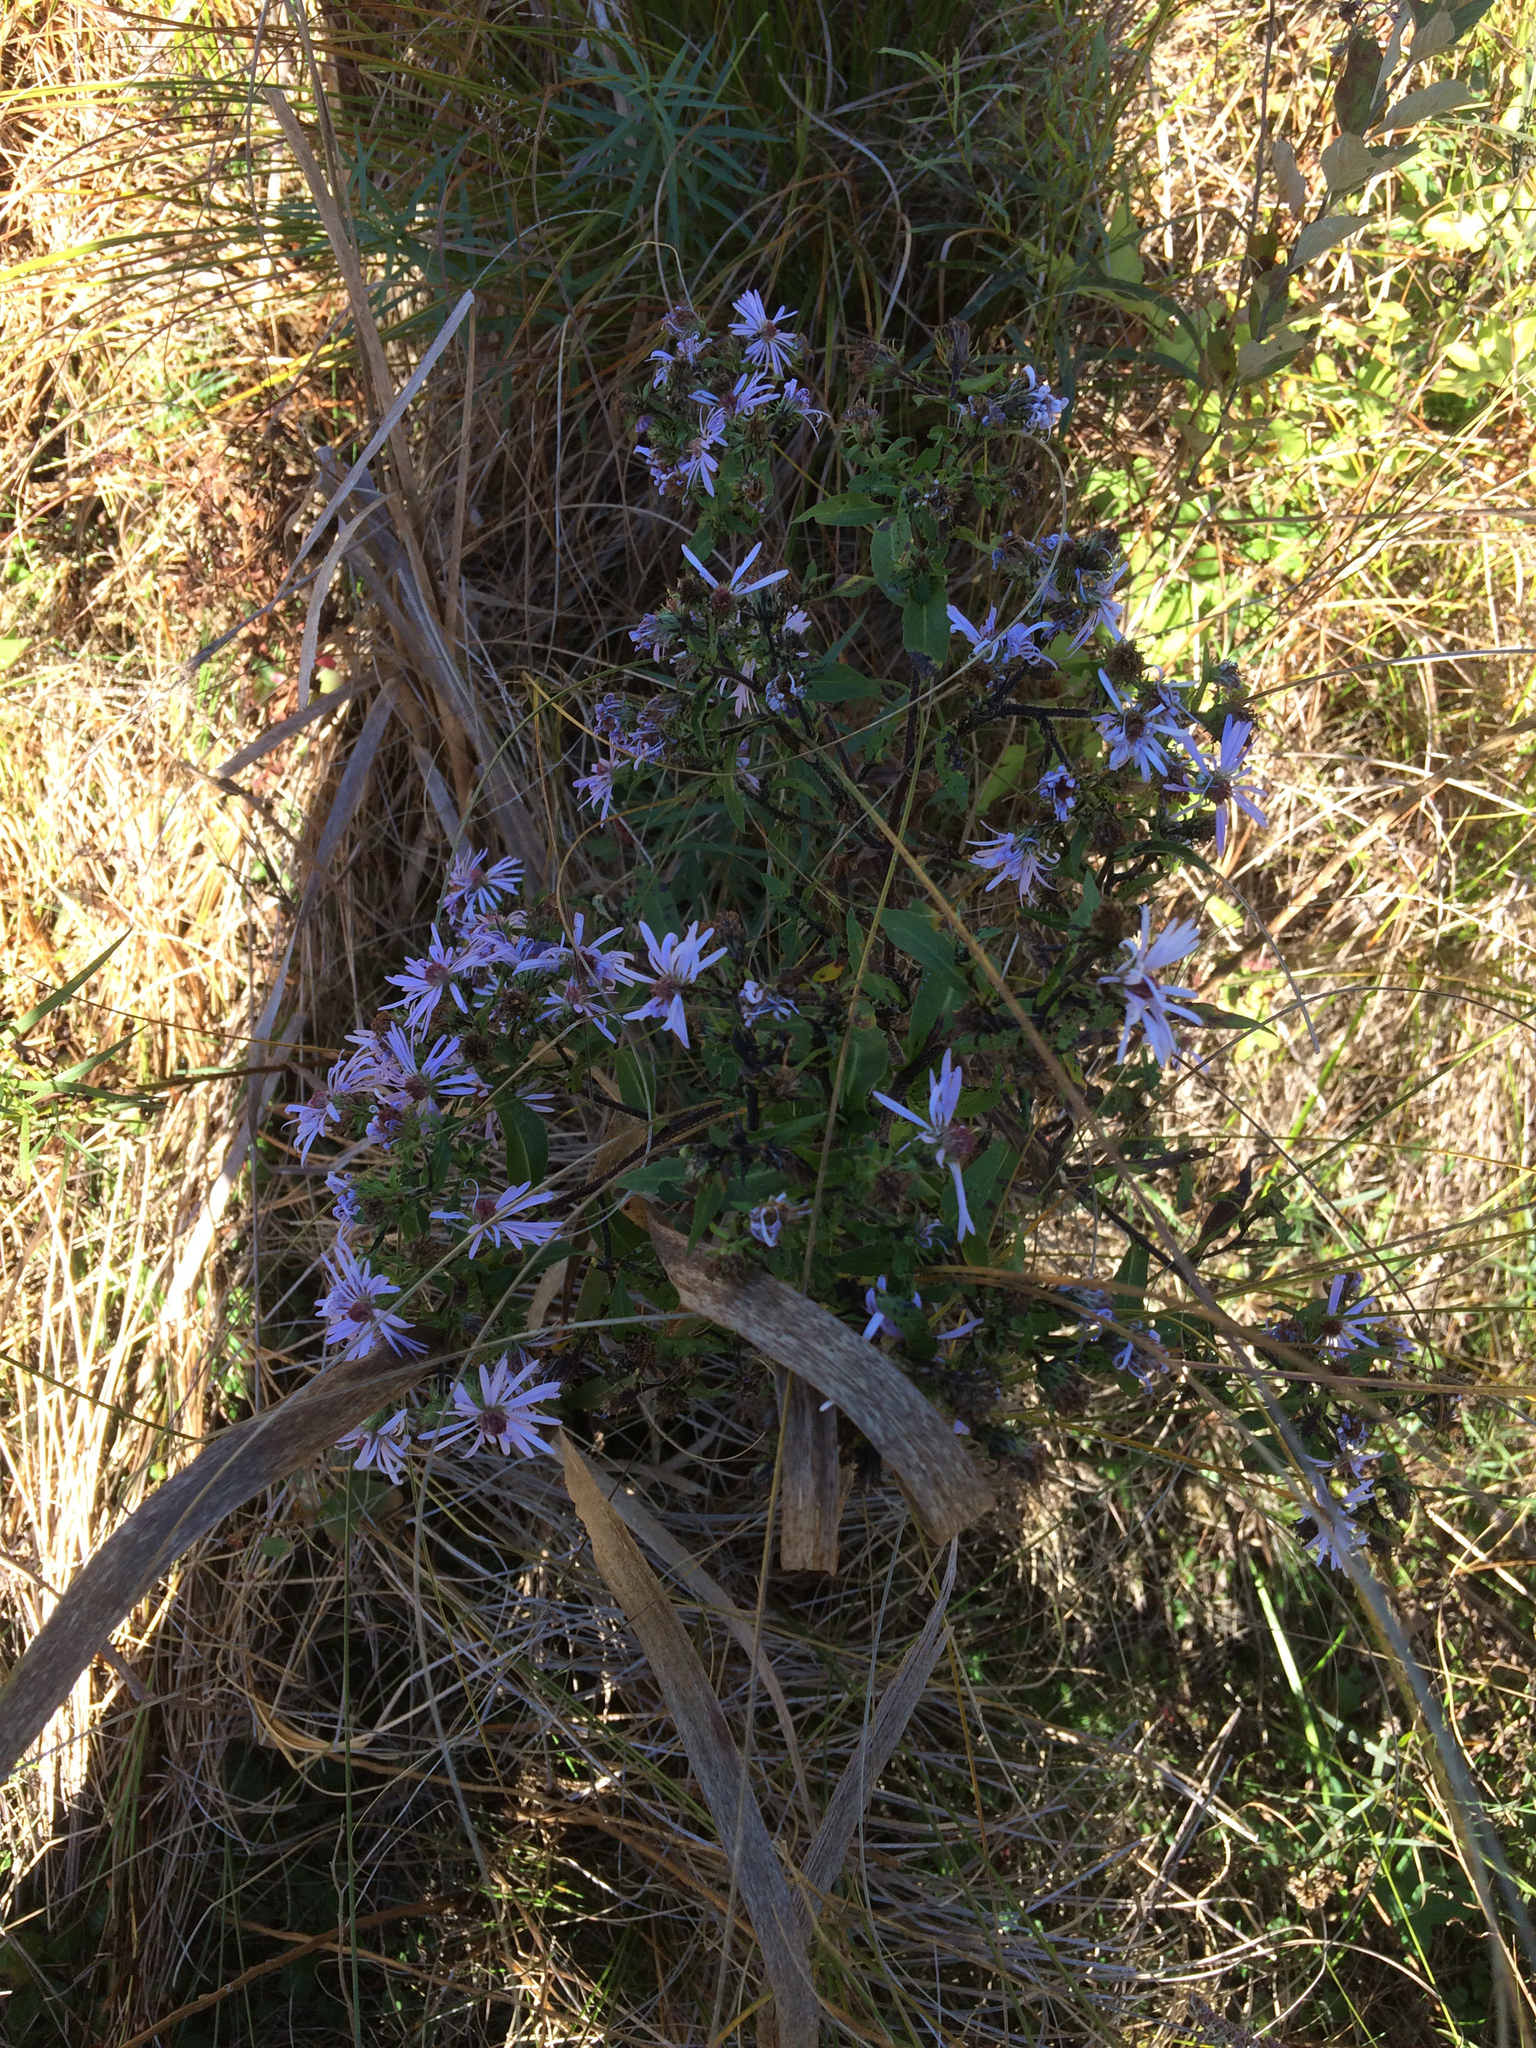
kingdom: Plantae
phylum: Tracheophyta
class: Magnoliopsida
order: Asterales
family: Asteraceae
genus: Symphyotrichum
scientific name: Symphyotrichum puniceum
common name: Bog aster
